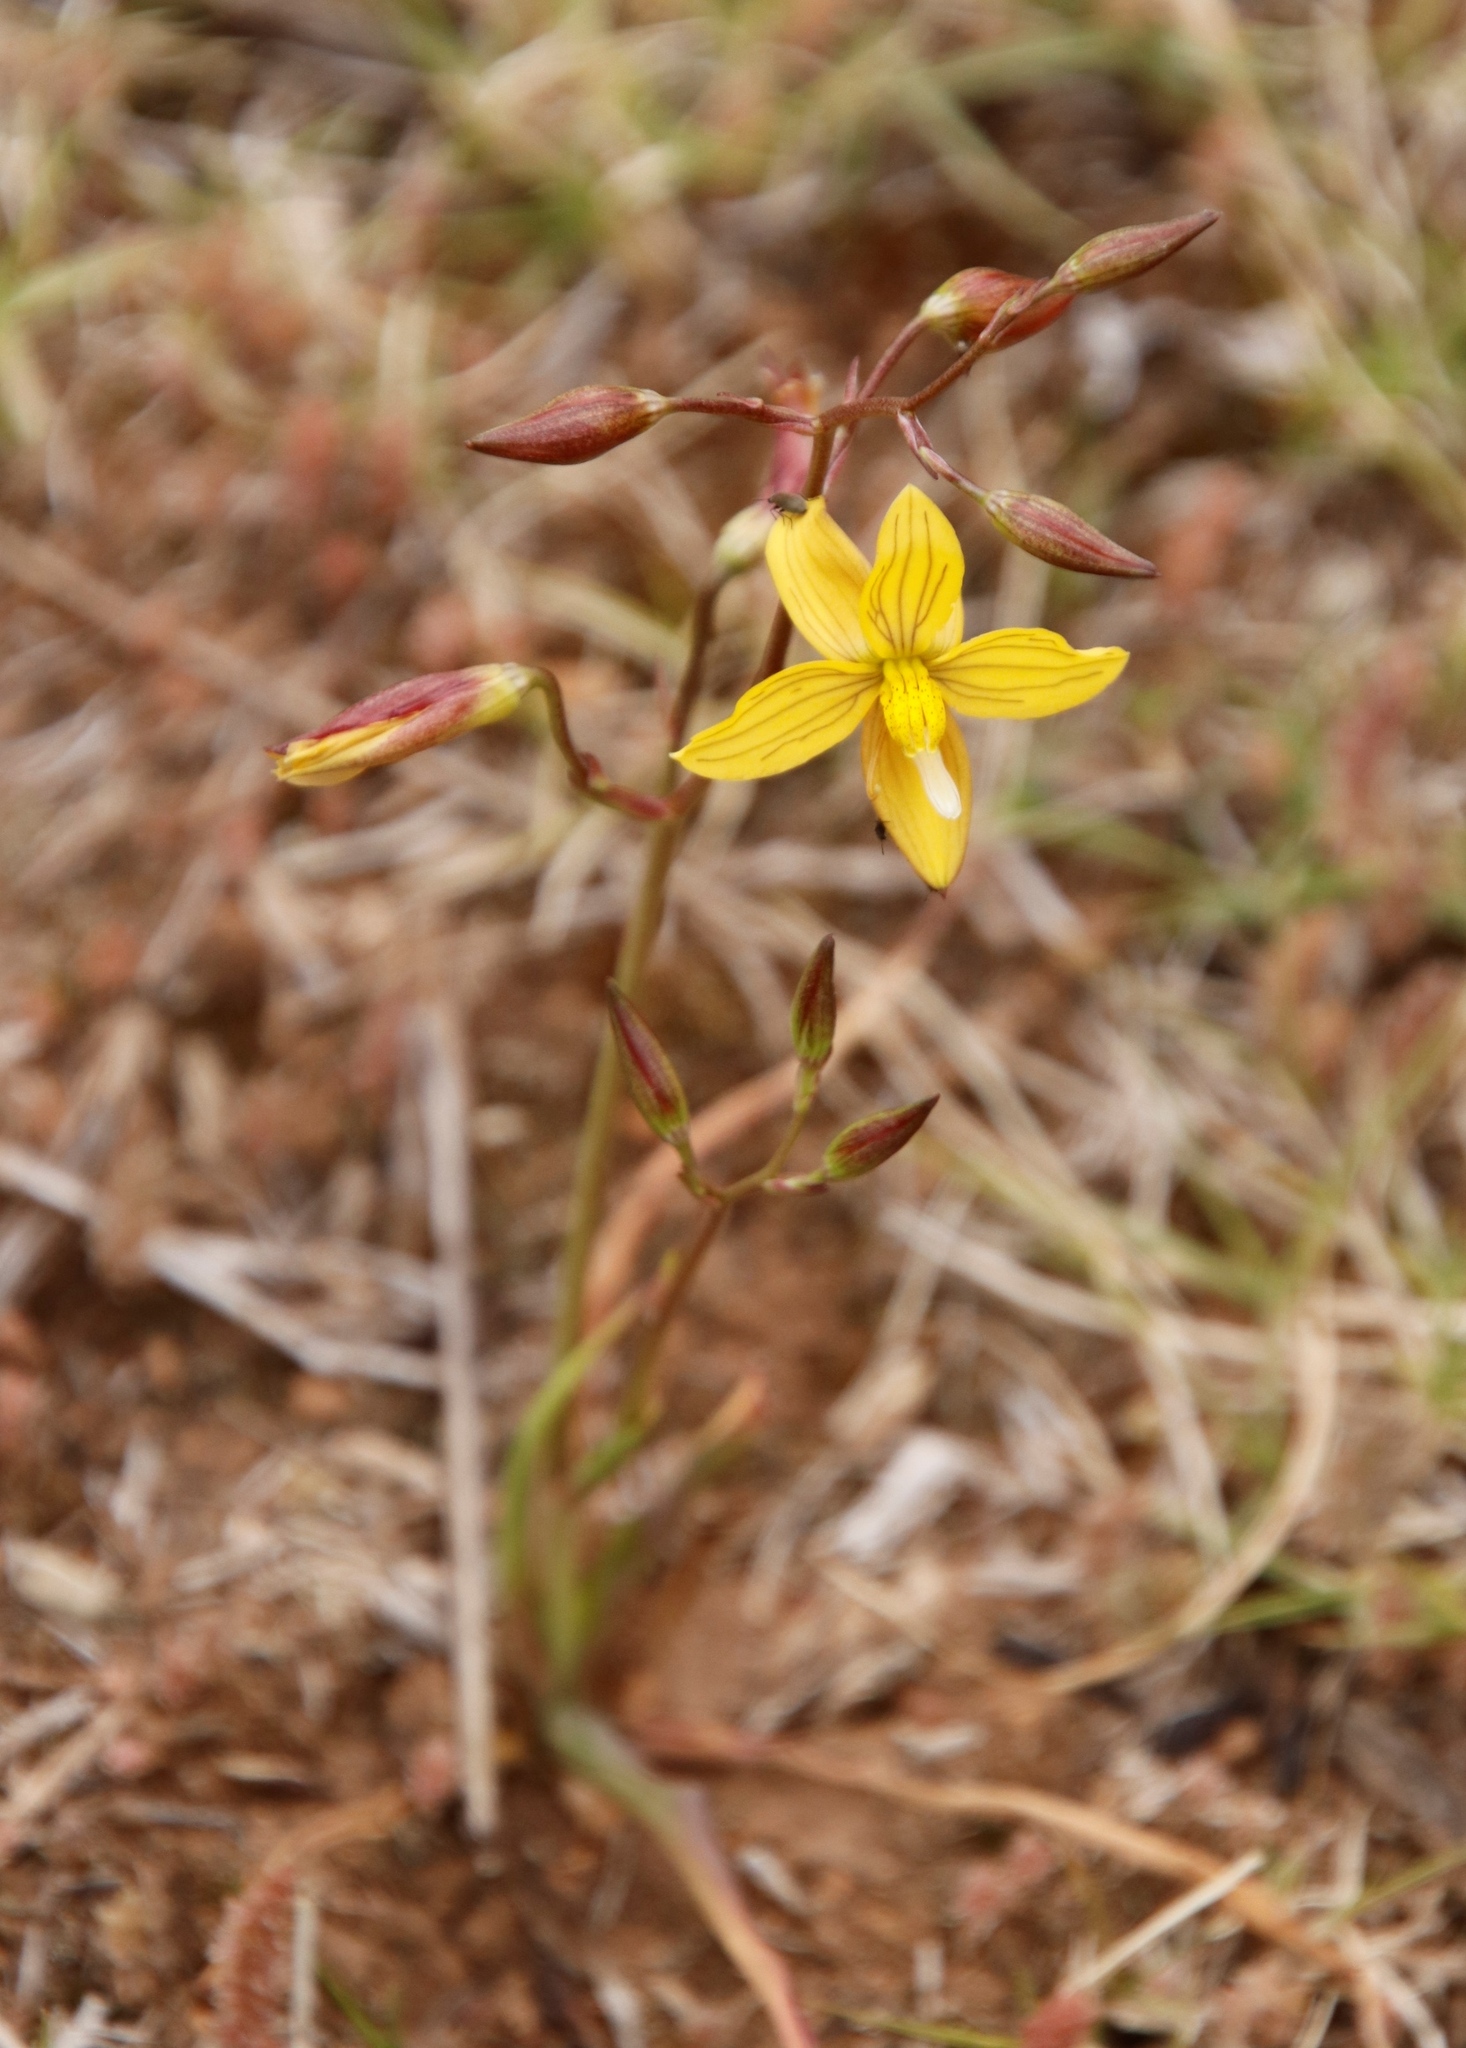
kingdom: Plantae
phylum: Tracheophyta
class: Liliopsida
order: Asparagales
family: Tecophilaeaceae
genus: Cyanella
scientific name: Cyanella lutea
